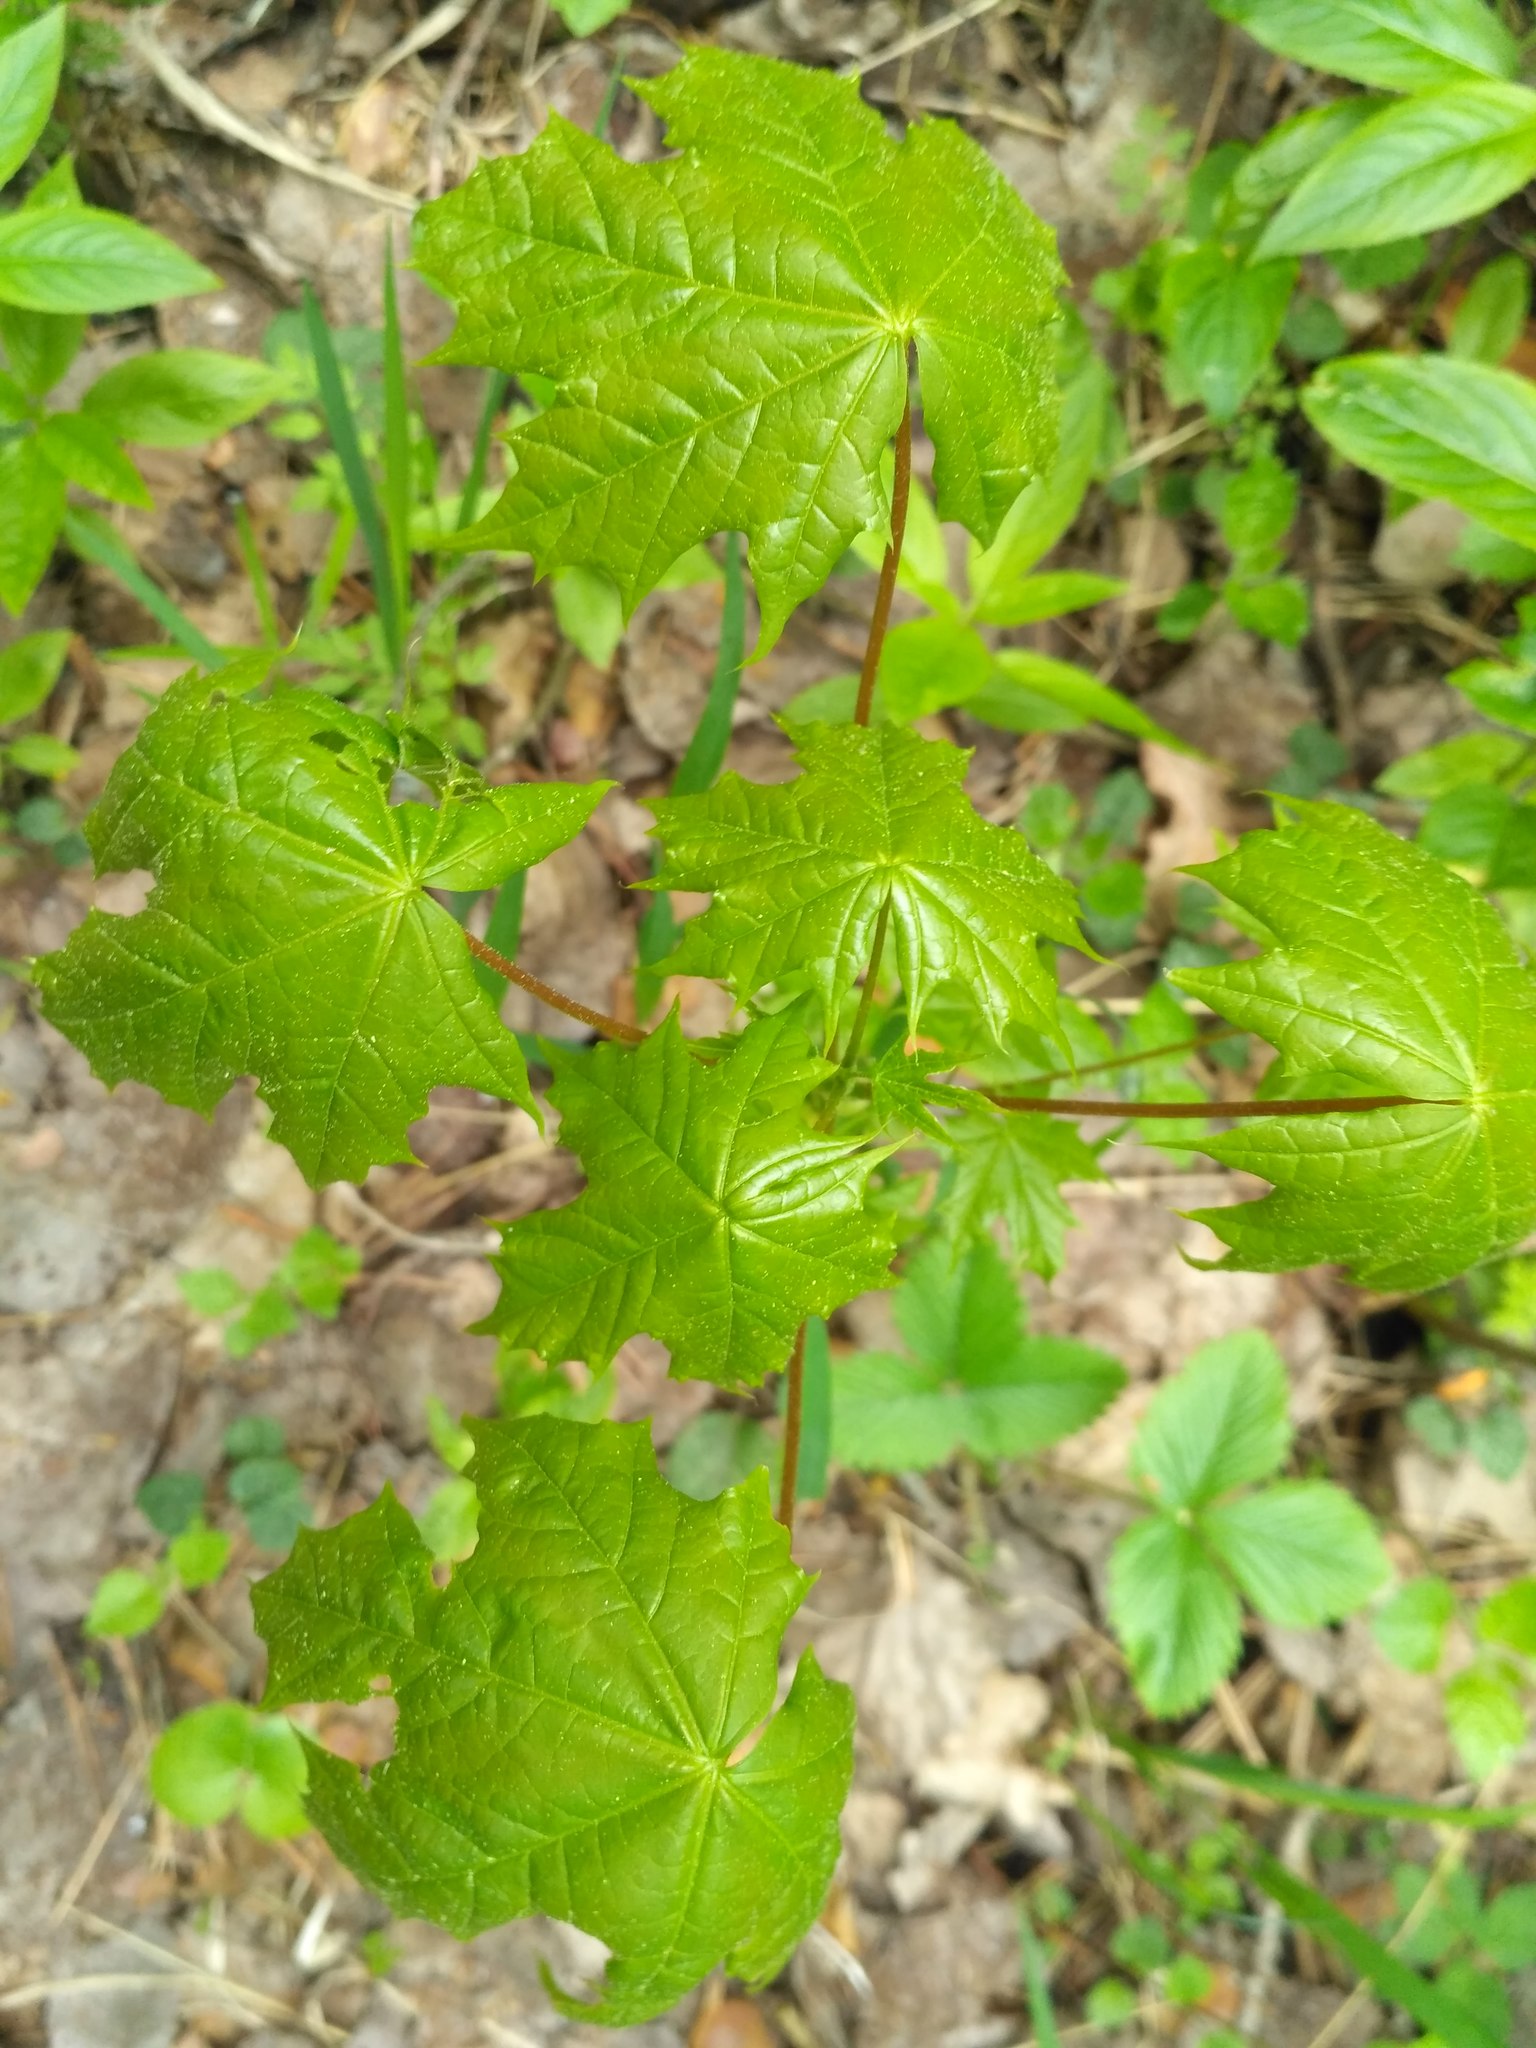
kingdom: Plantae
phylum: Tracheophyta
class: Magnoliopsida
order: Sapindales
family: Sapindaceae
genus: Acer
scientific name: Acer platanoides
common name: Norway maple
